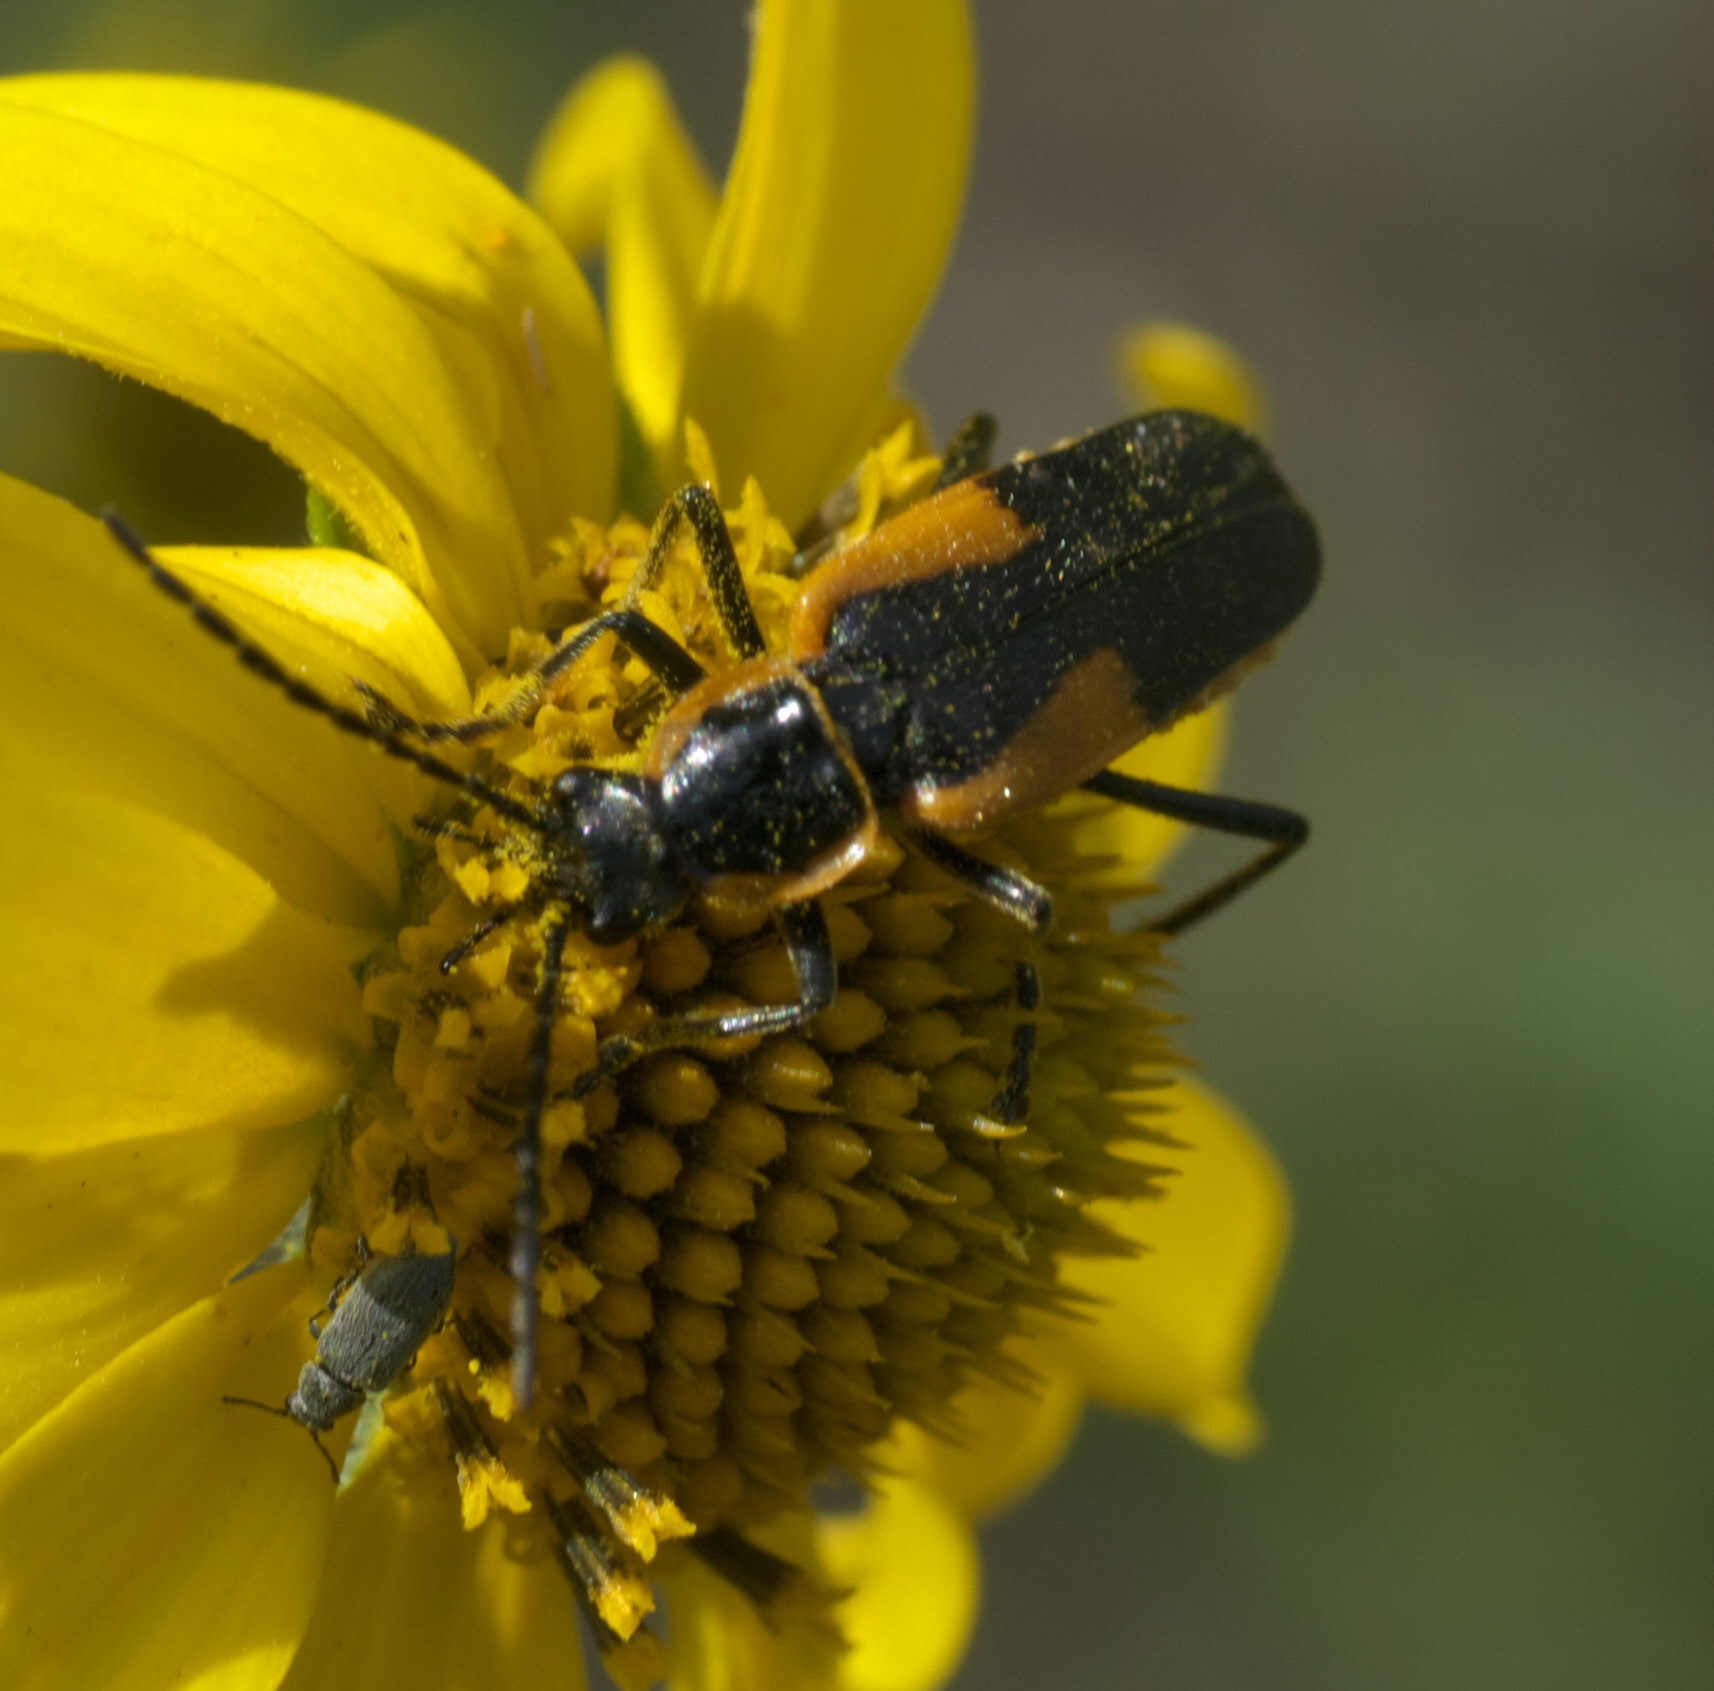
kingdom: Animalia
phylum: Arthropoda
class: Insecta
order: Coleoptera
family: Cantharidae
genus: Chauliognathus
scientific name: Chauliognathus deceptus
